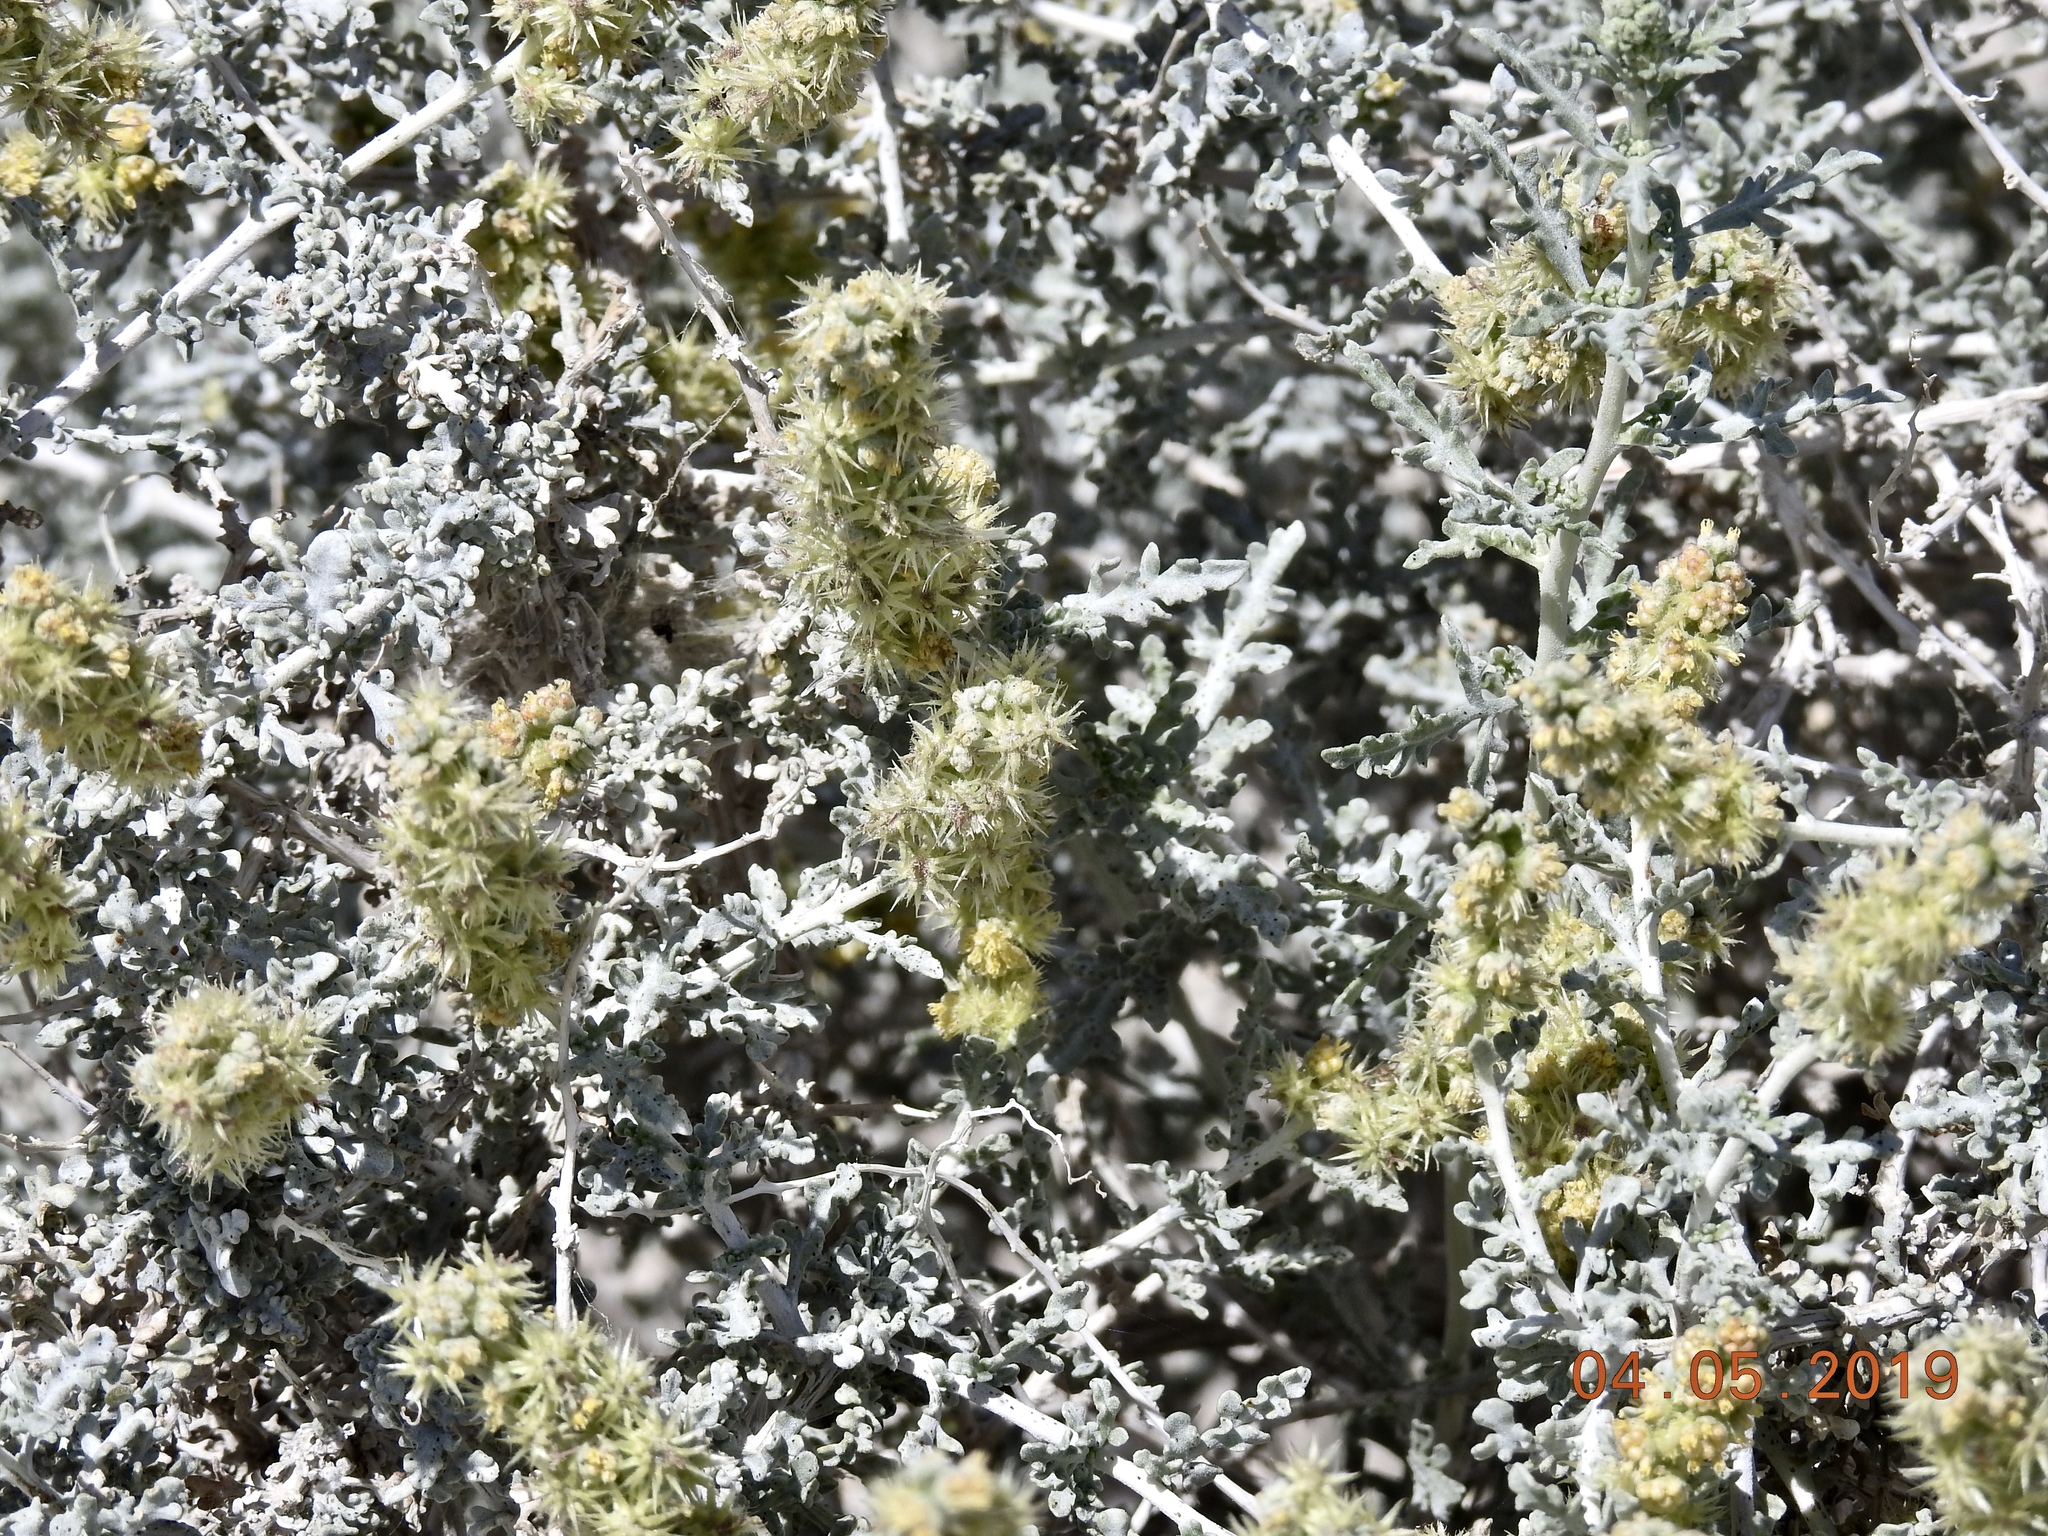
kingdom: Plantae
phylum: Tracheophyta
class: Magnoliopsida
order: Asterales
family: Asteraceae
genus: Ambrosia
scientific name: Ambrosia dumosa
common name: Bur-sage
